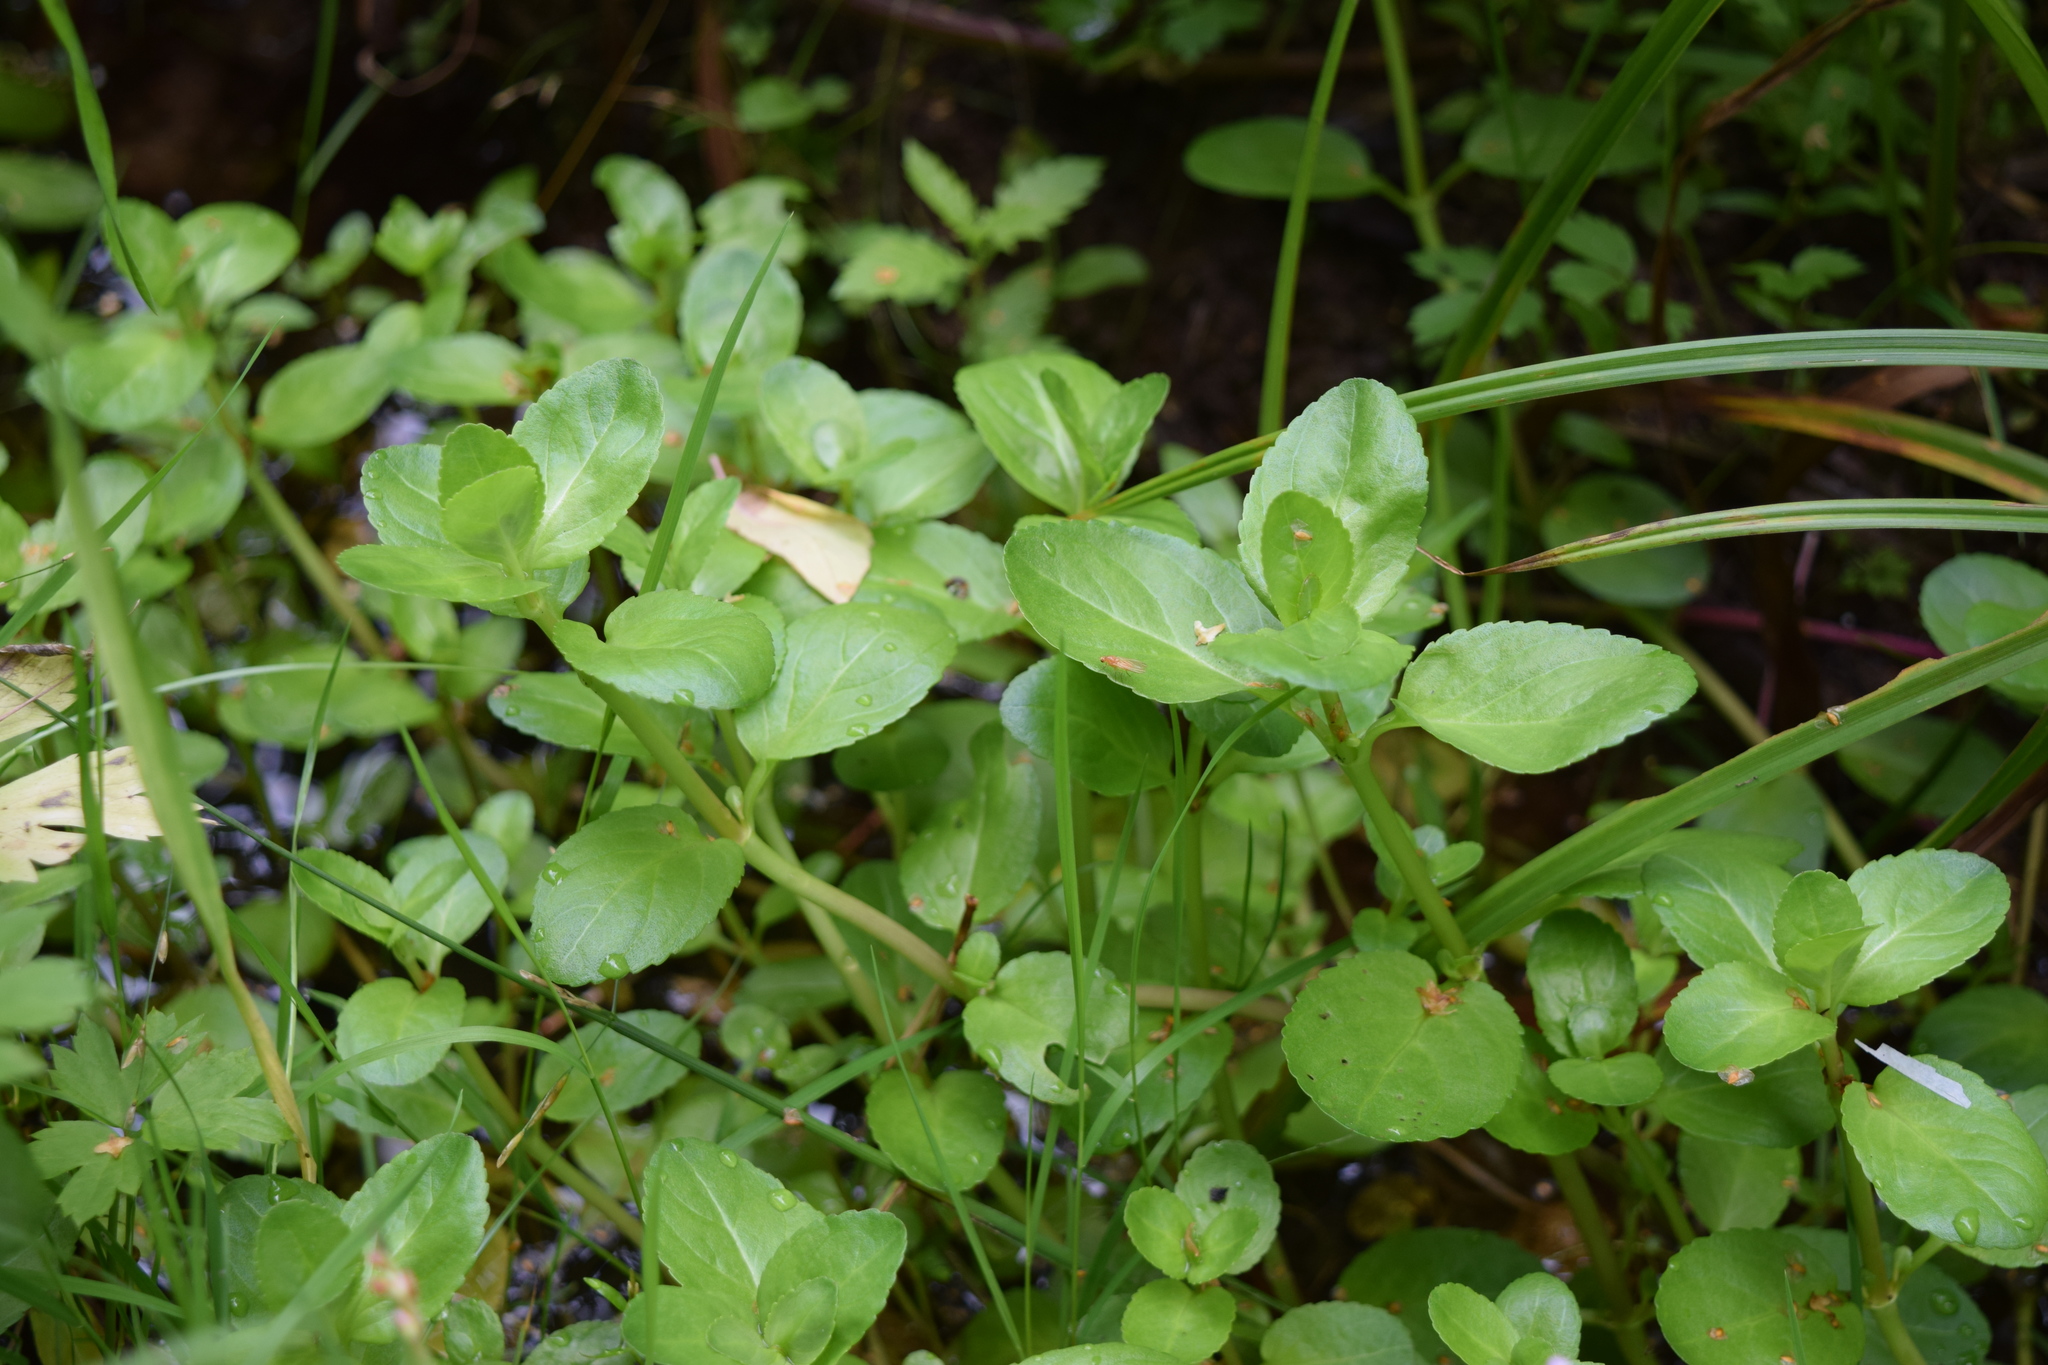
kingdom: Plantae
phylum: Tracheophyta
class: Magnoliopsida
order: Lamiales
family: Plantaginaceae
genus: Veronica
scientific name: Veronica beccabunga
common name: Brooklime
